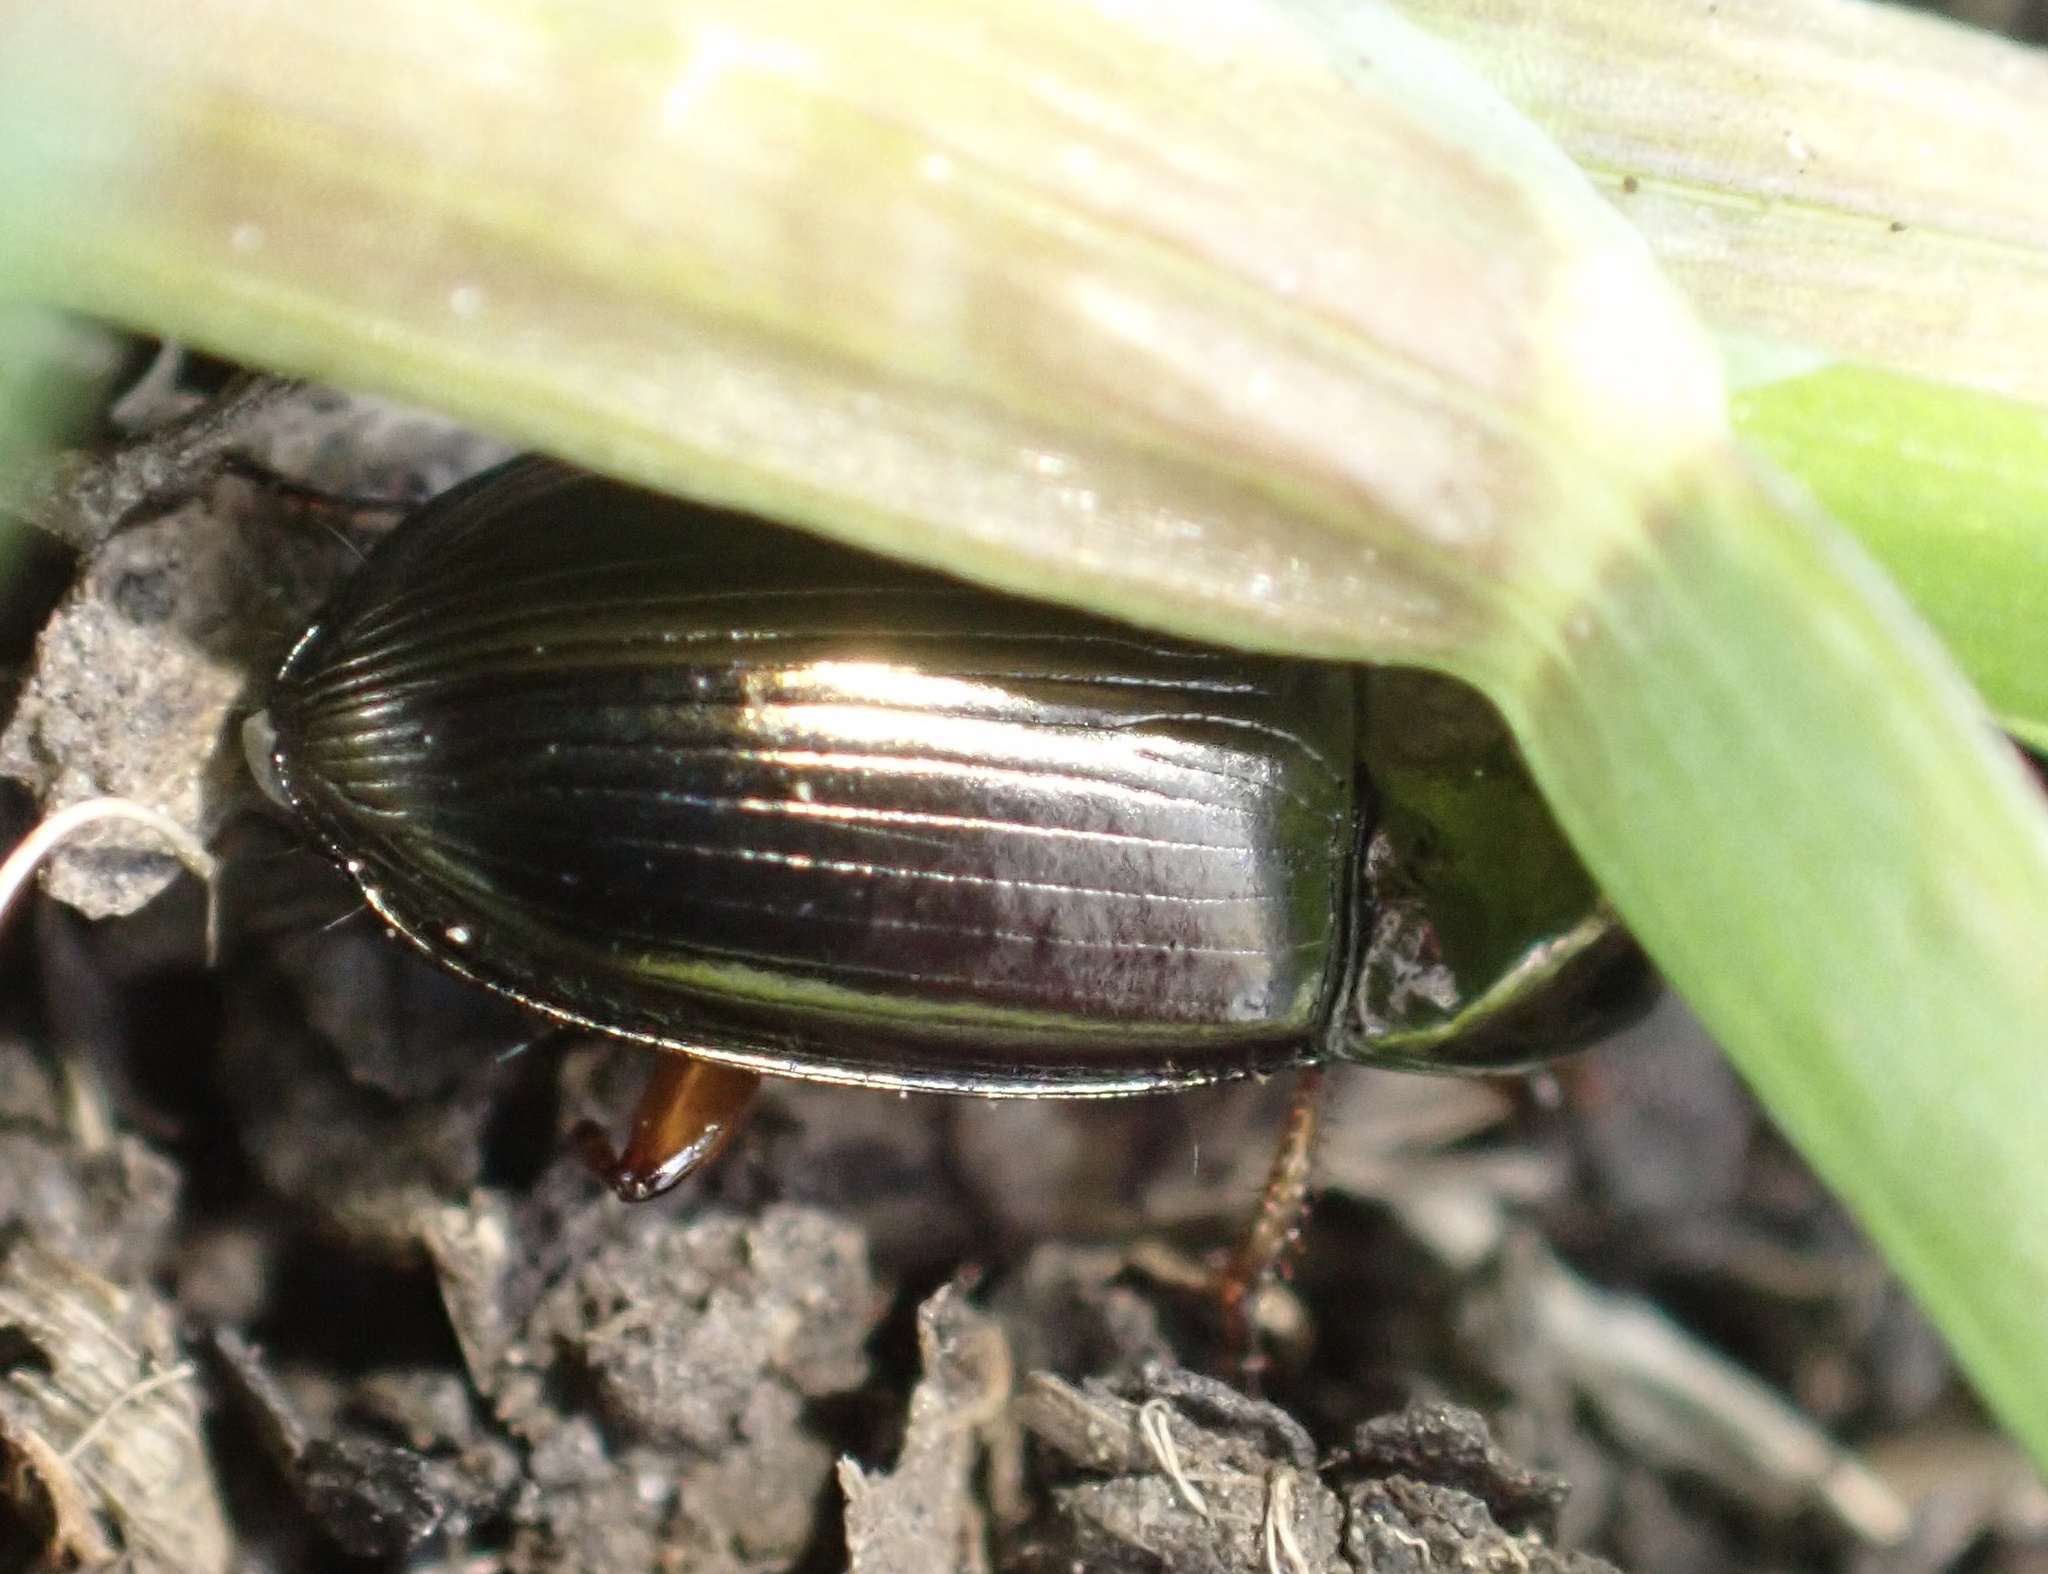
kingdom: Animalia
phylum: Arthropoda
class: Insecta
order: Coleoptera
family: Carabidae
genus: Amara
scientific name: Amara familiaris
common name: Familiar harp round beetle
